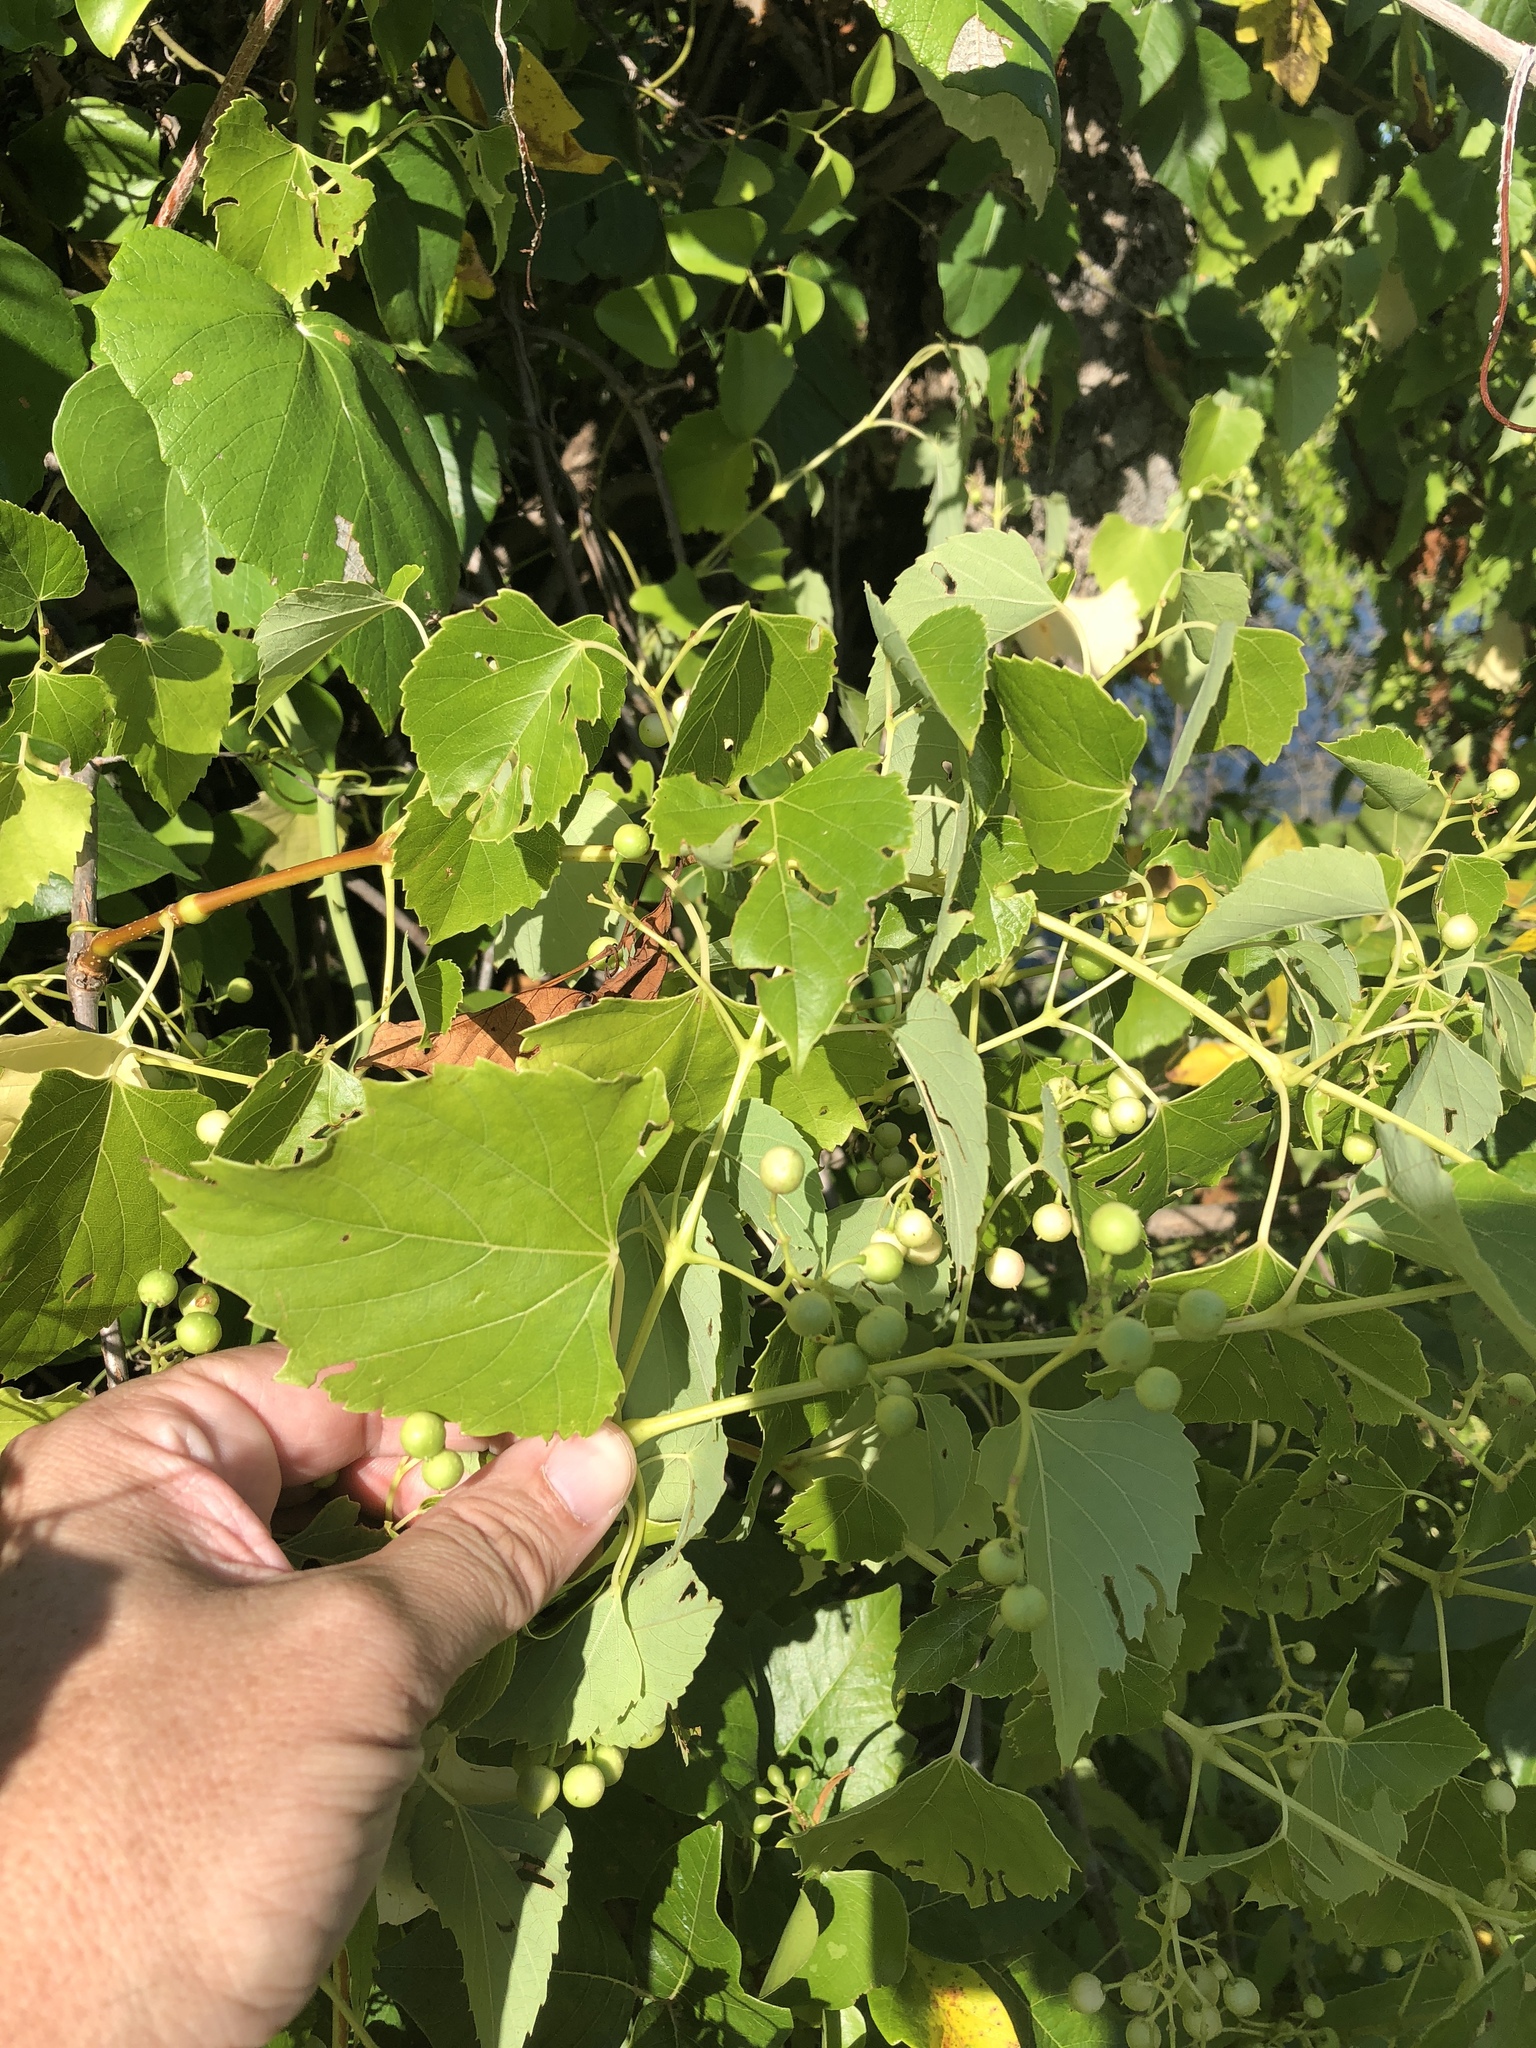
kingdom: Plantae
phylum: Tracheophyta
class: Magnoliopsida
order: Vitales
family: Vitaceae
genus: Ampelopsis
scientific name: Ampelopsis cordata
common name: Heart-leaf ampelopsis
